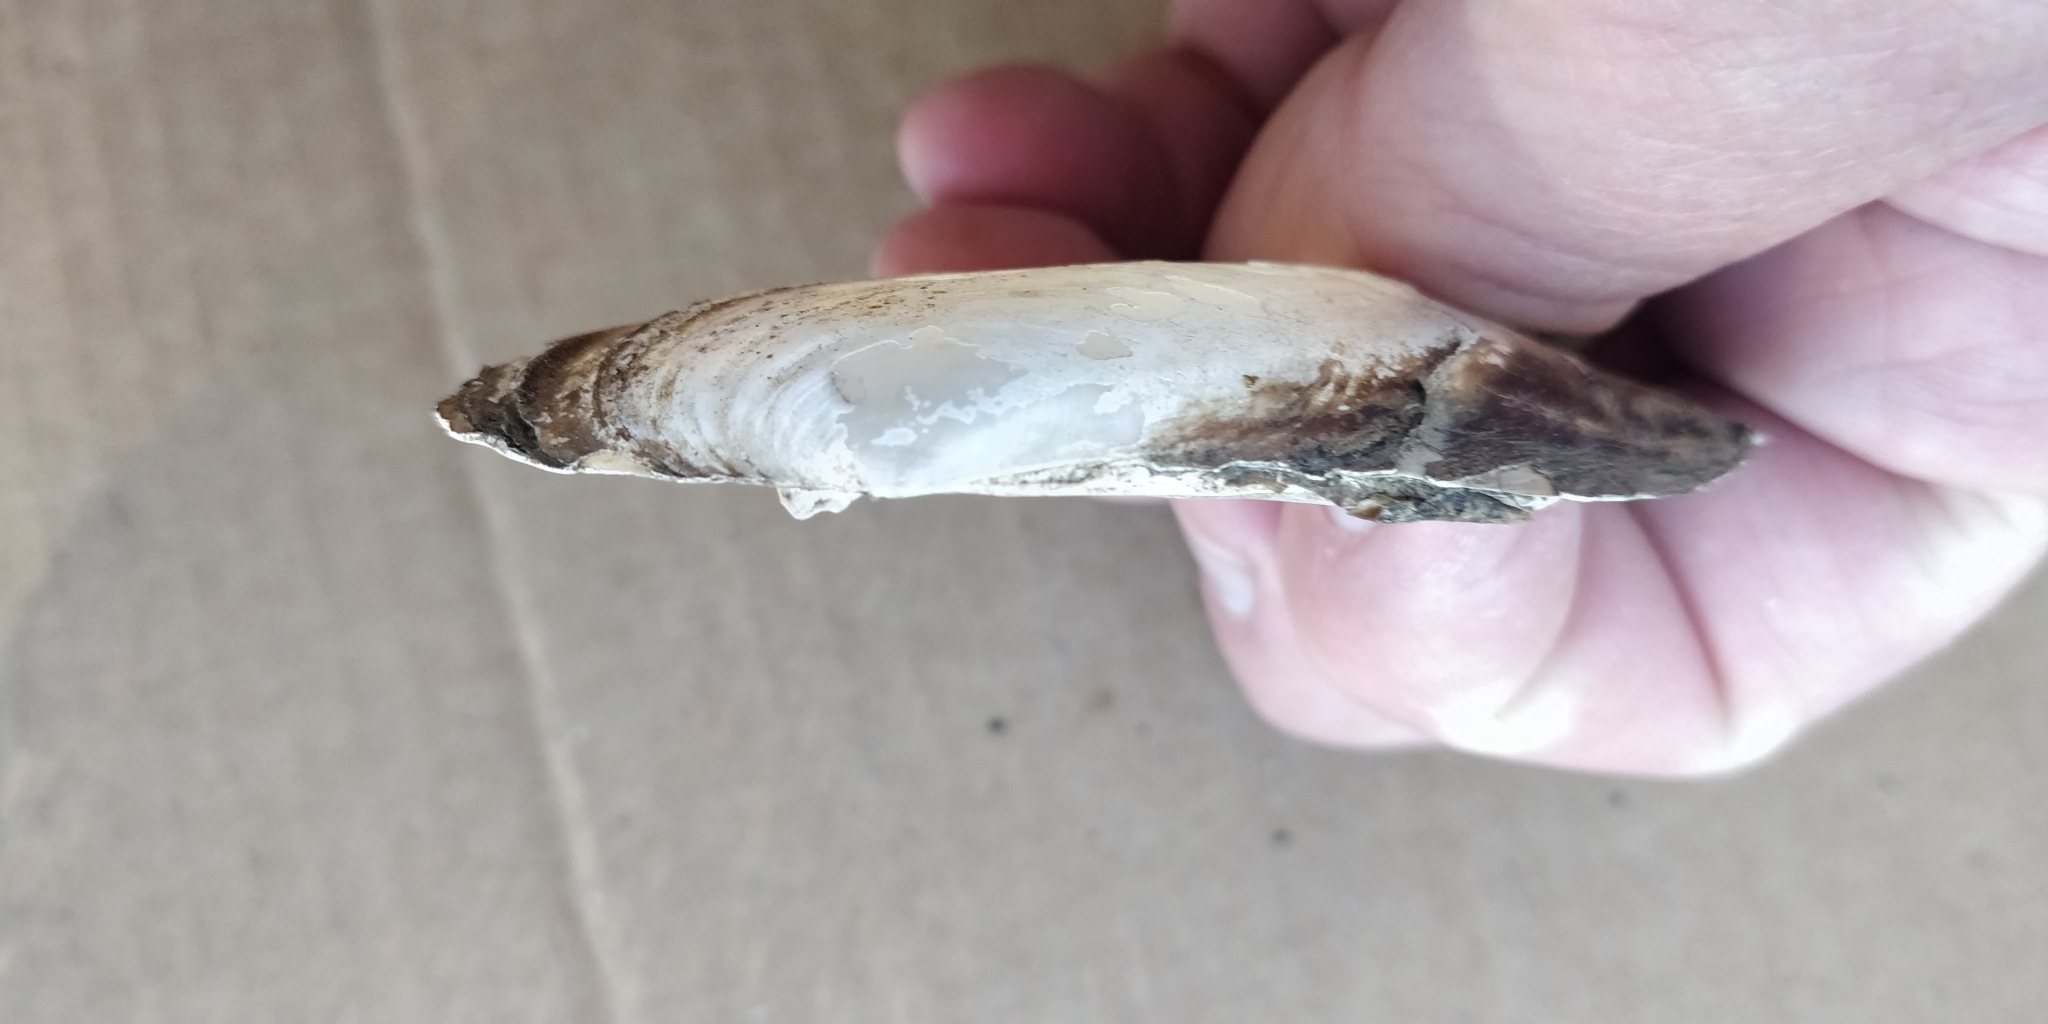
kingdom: Animalia
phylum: Mollusca
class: Bivalvia
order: Unionida
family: Unionidae
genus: Potamilus
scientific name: Potamilus fragilis
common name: Fragile papershell
